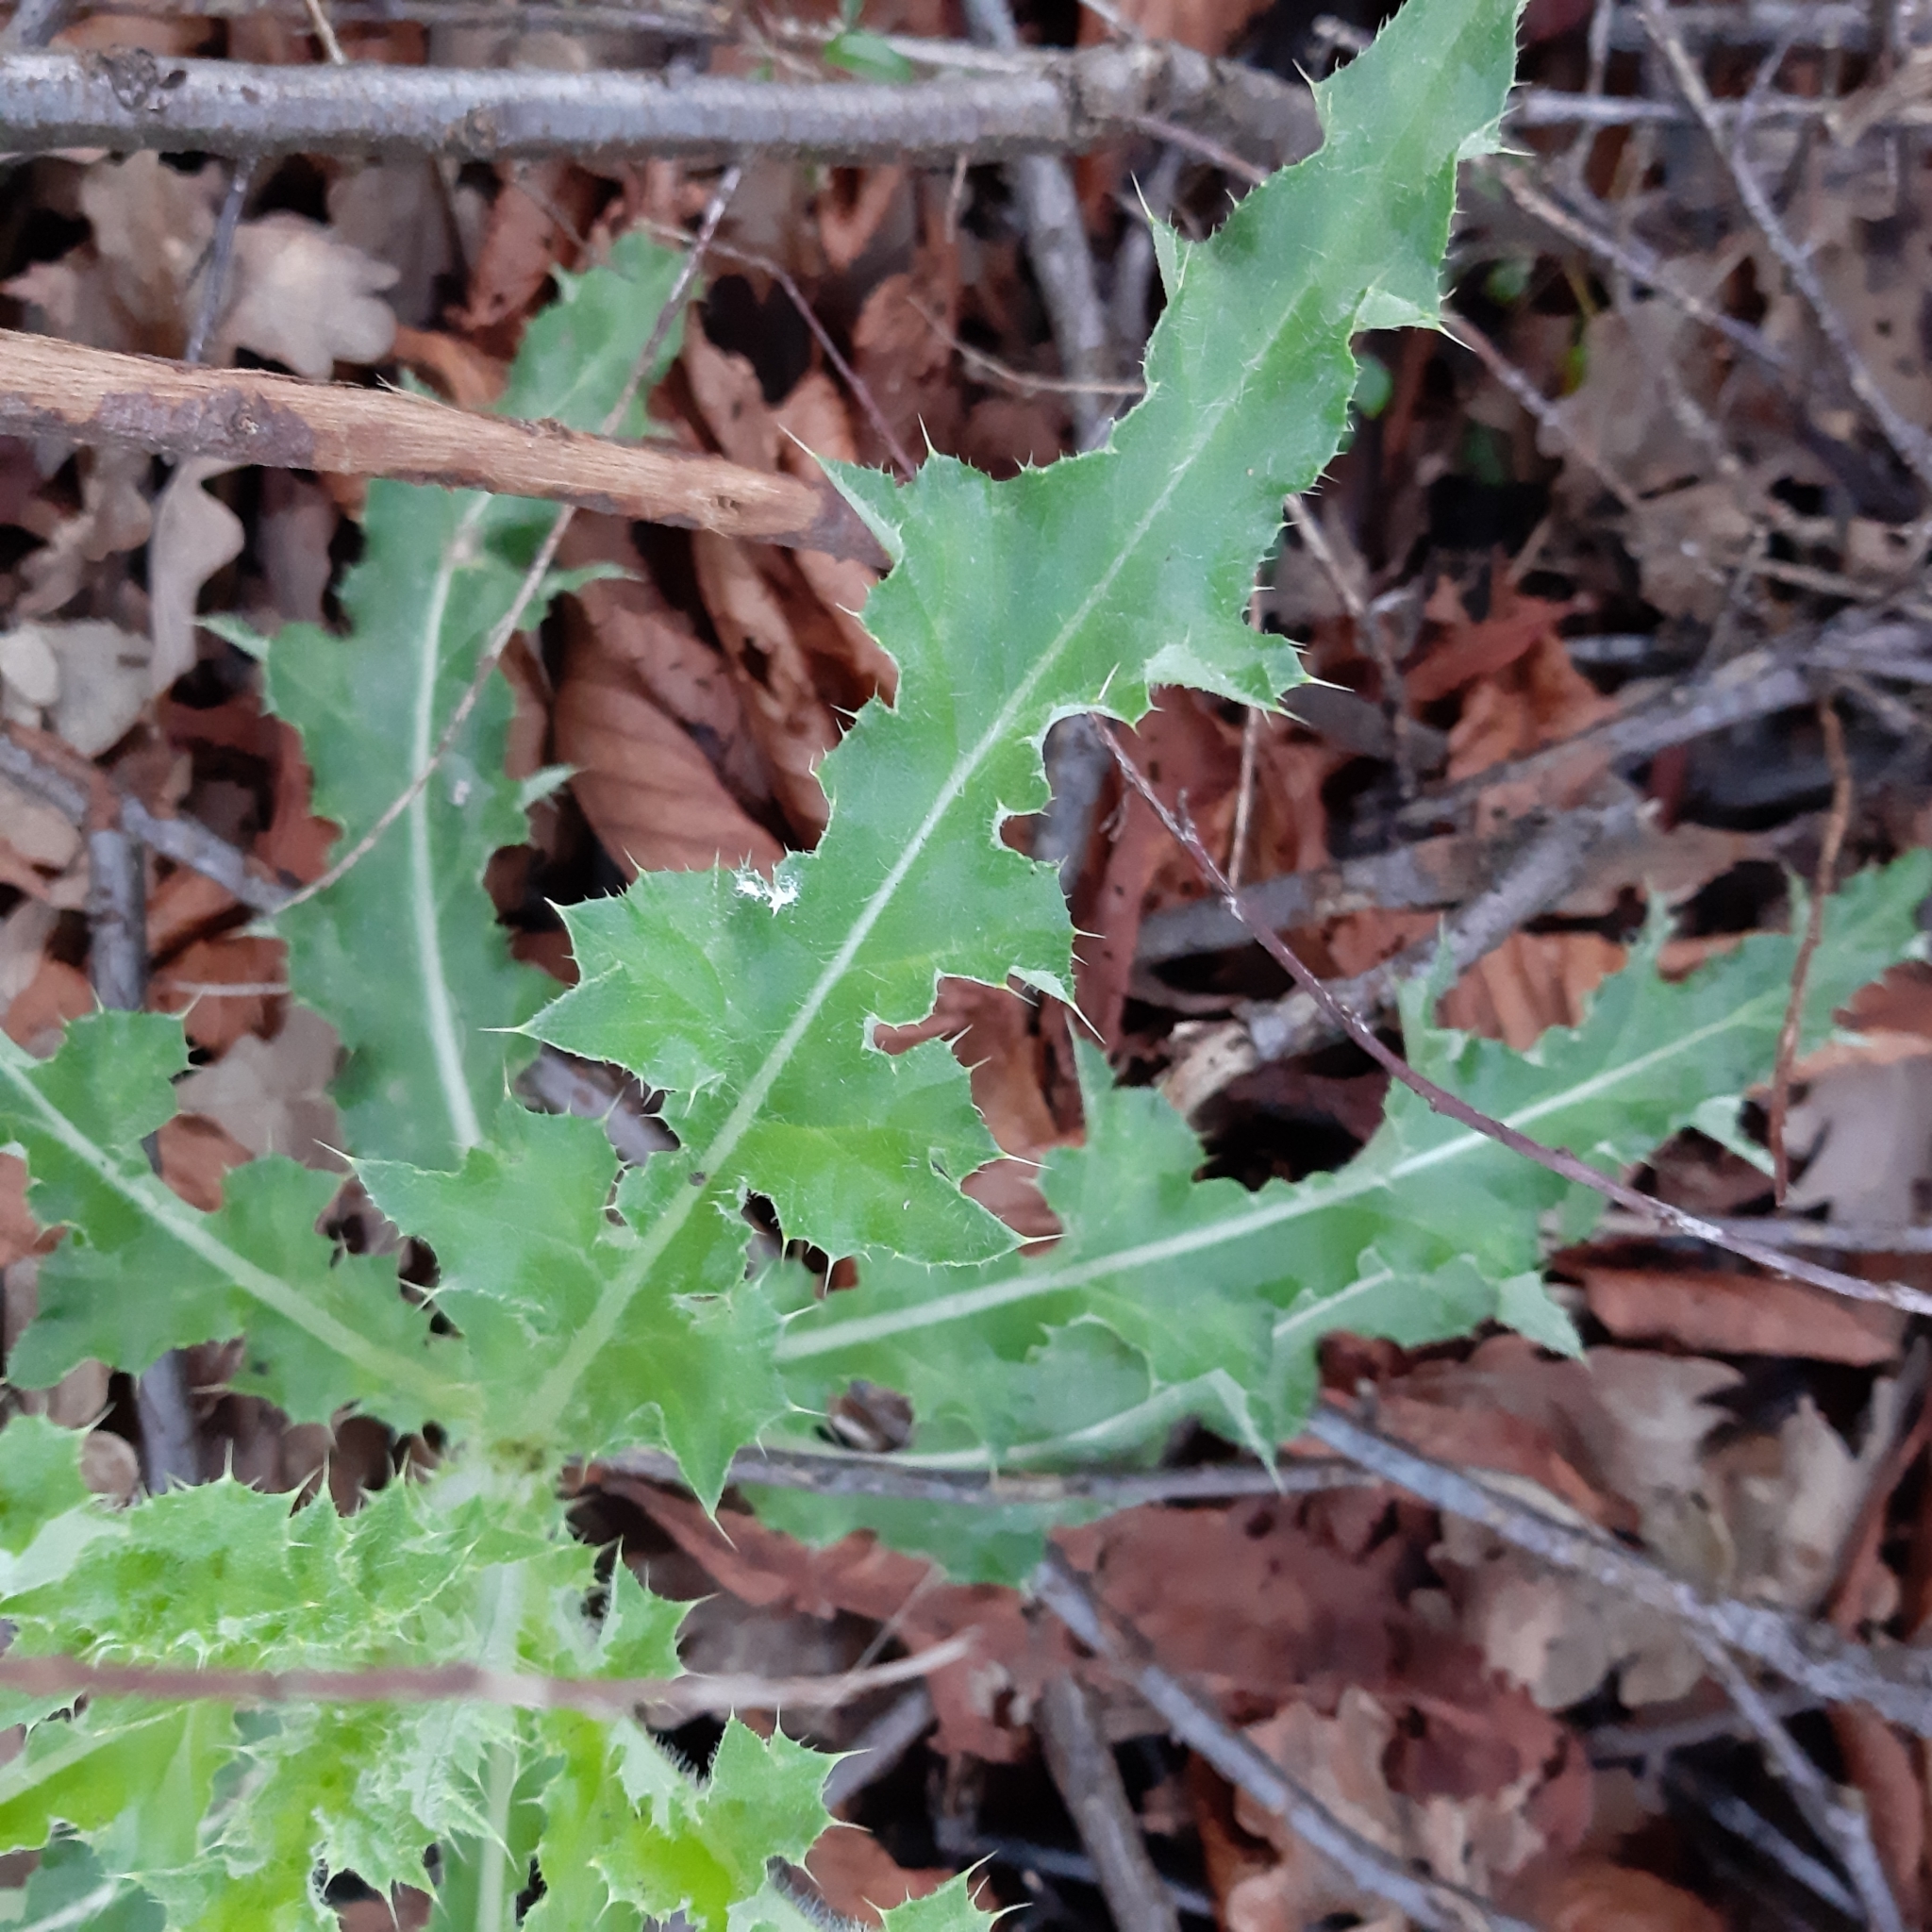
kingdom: Plantae
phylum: Tracheophyta
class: Magnoliopsida
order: Asterales
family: Asteraceae
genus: Cirsium
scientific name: Cirsium arvense
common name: Creeping thistle
